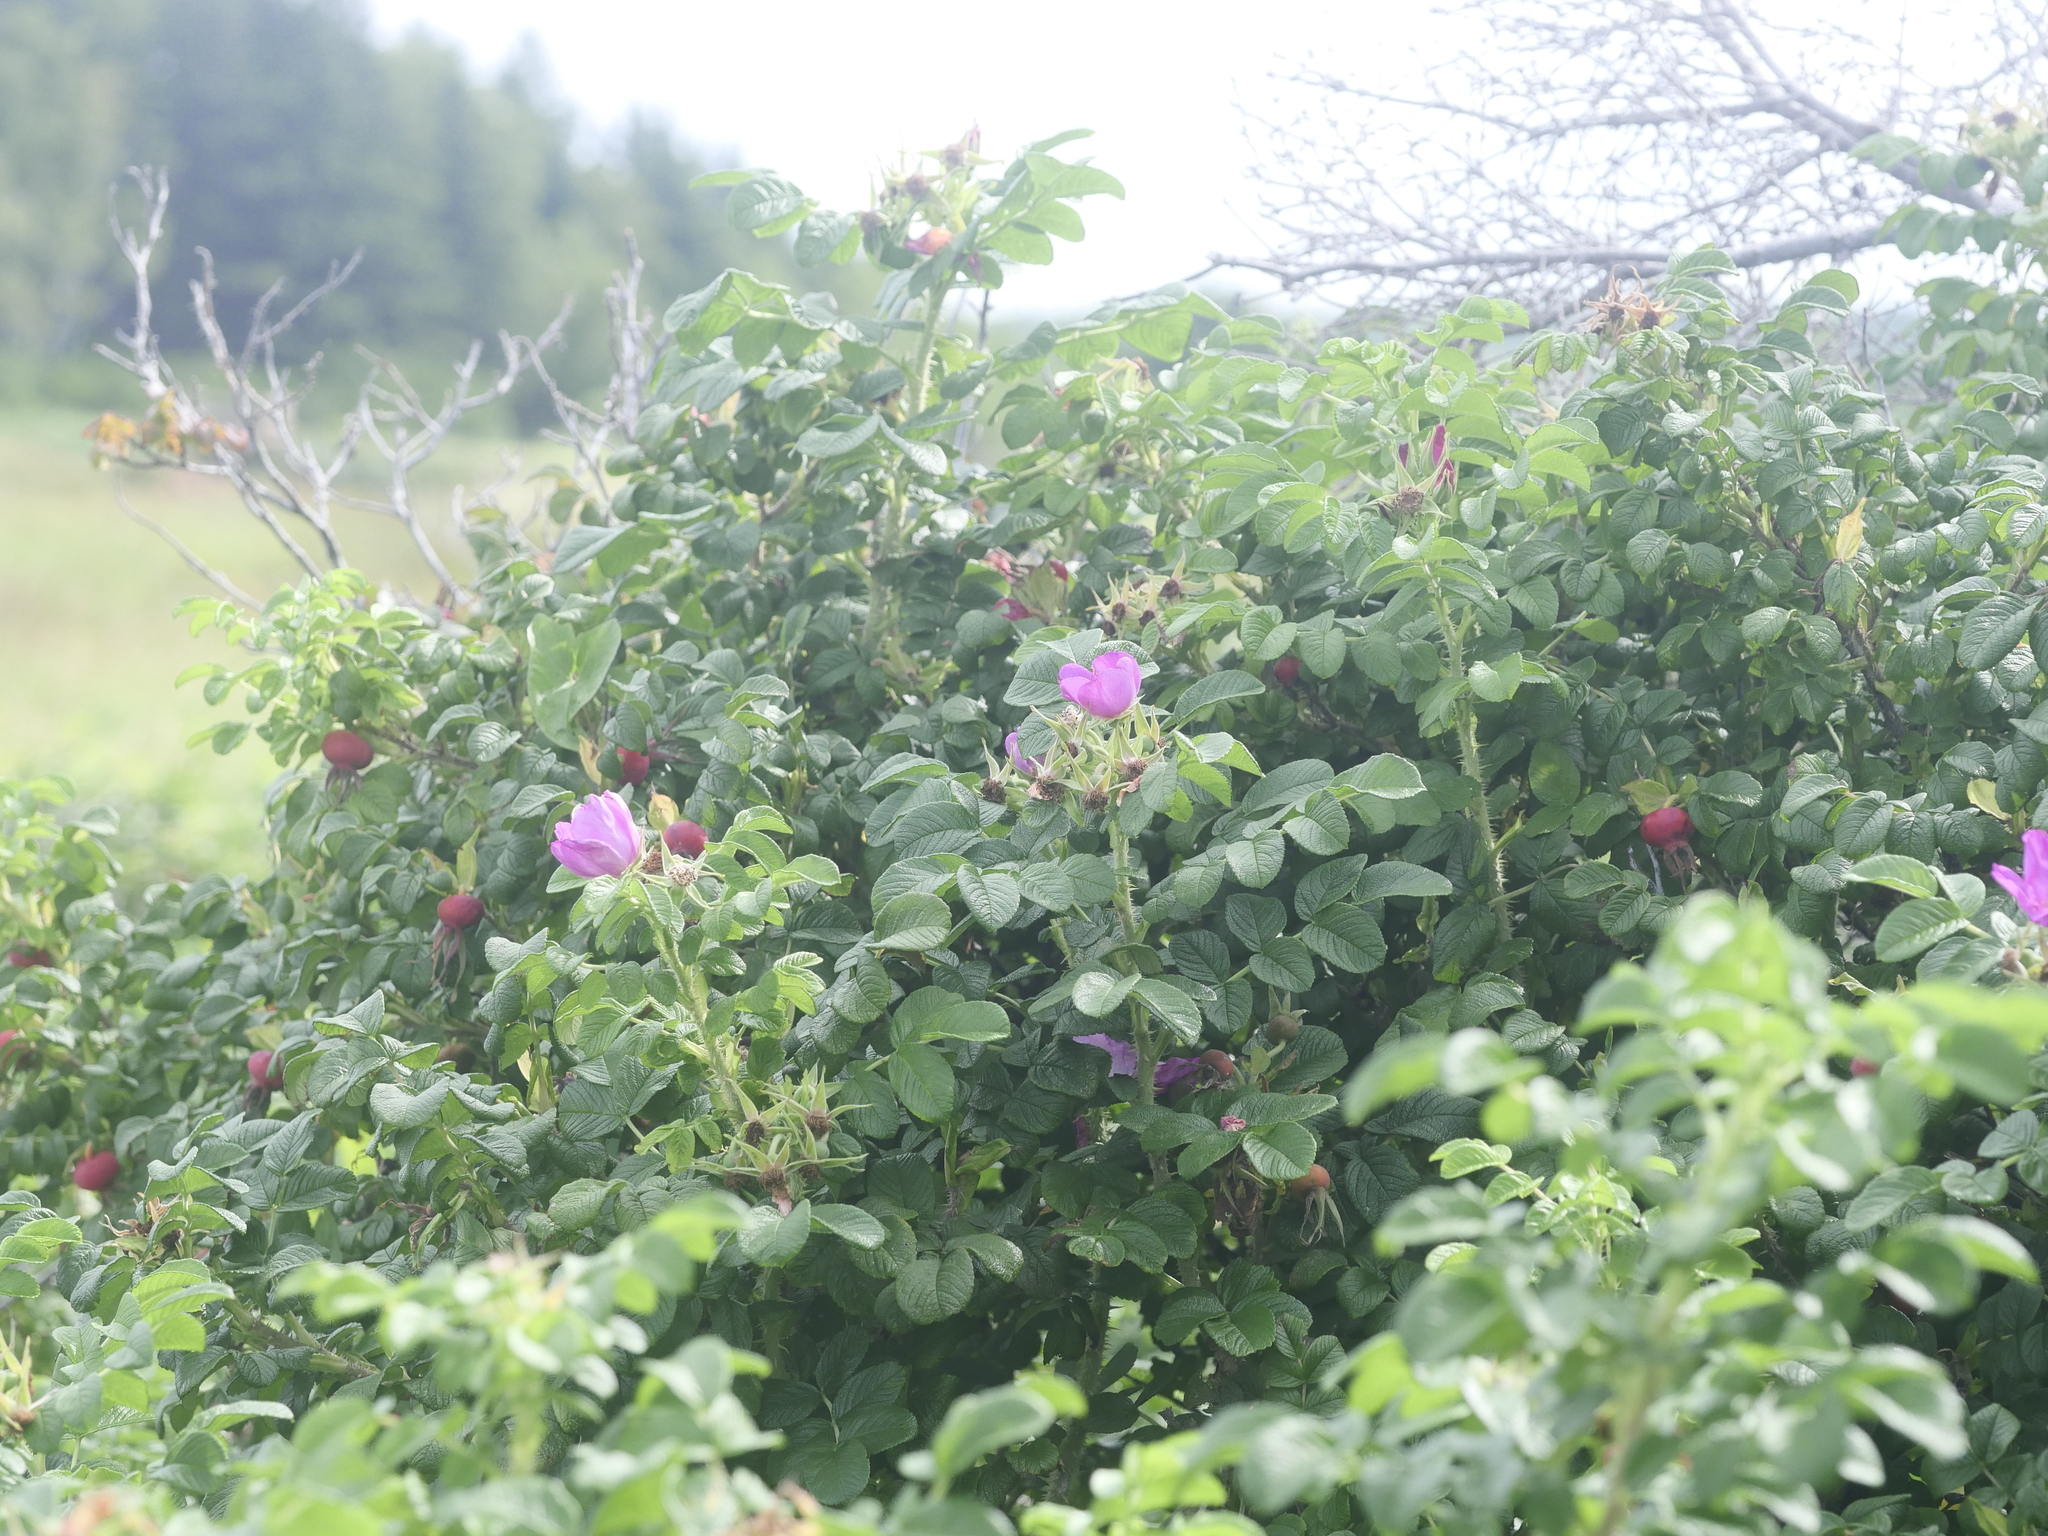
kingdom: Plantae
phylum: Tracheophyta
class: Magnoliopsida
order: Rosales
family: Rosaceae
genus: Rosa
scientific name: Rosa rugosa
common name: Japanese rose
